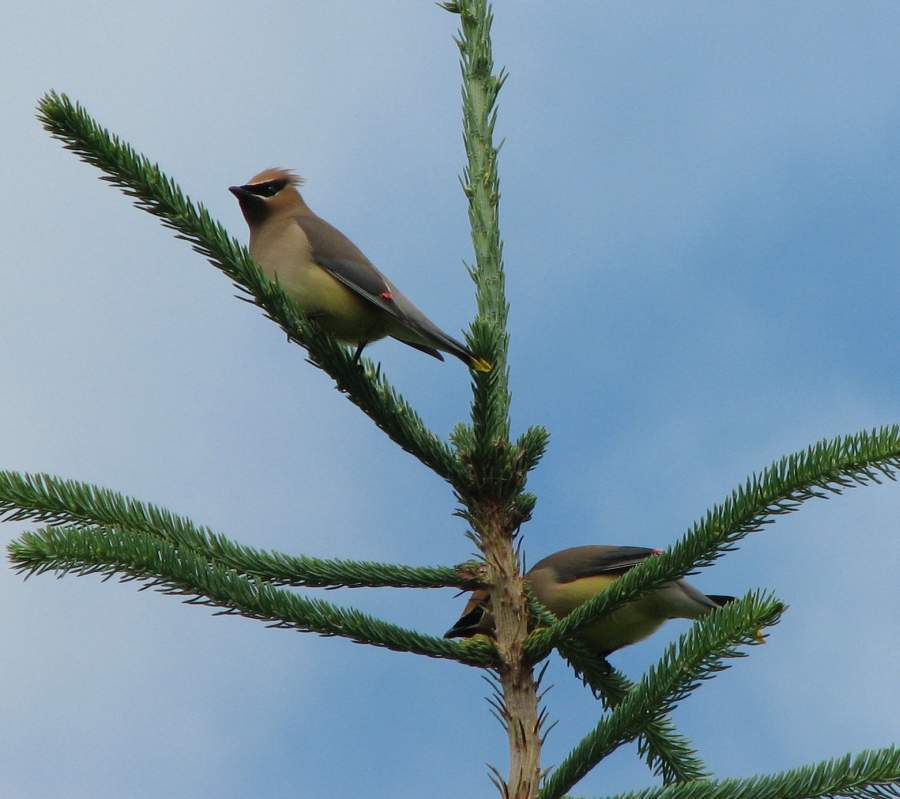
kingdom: Animalia
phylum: Chordata
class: Aves
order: Passeriformes
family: Bombycillidae
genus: Bombycilla
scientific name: Bombycilla cedrorum
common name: Cedar waxwing
